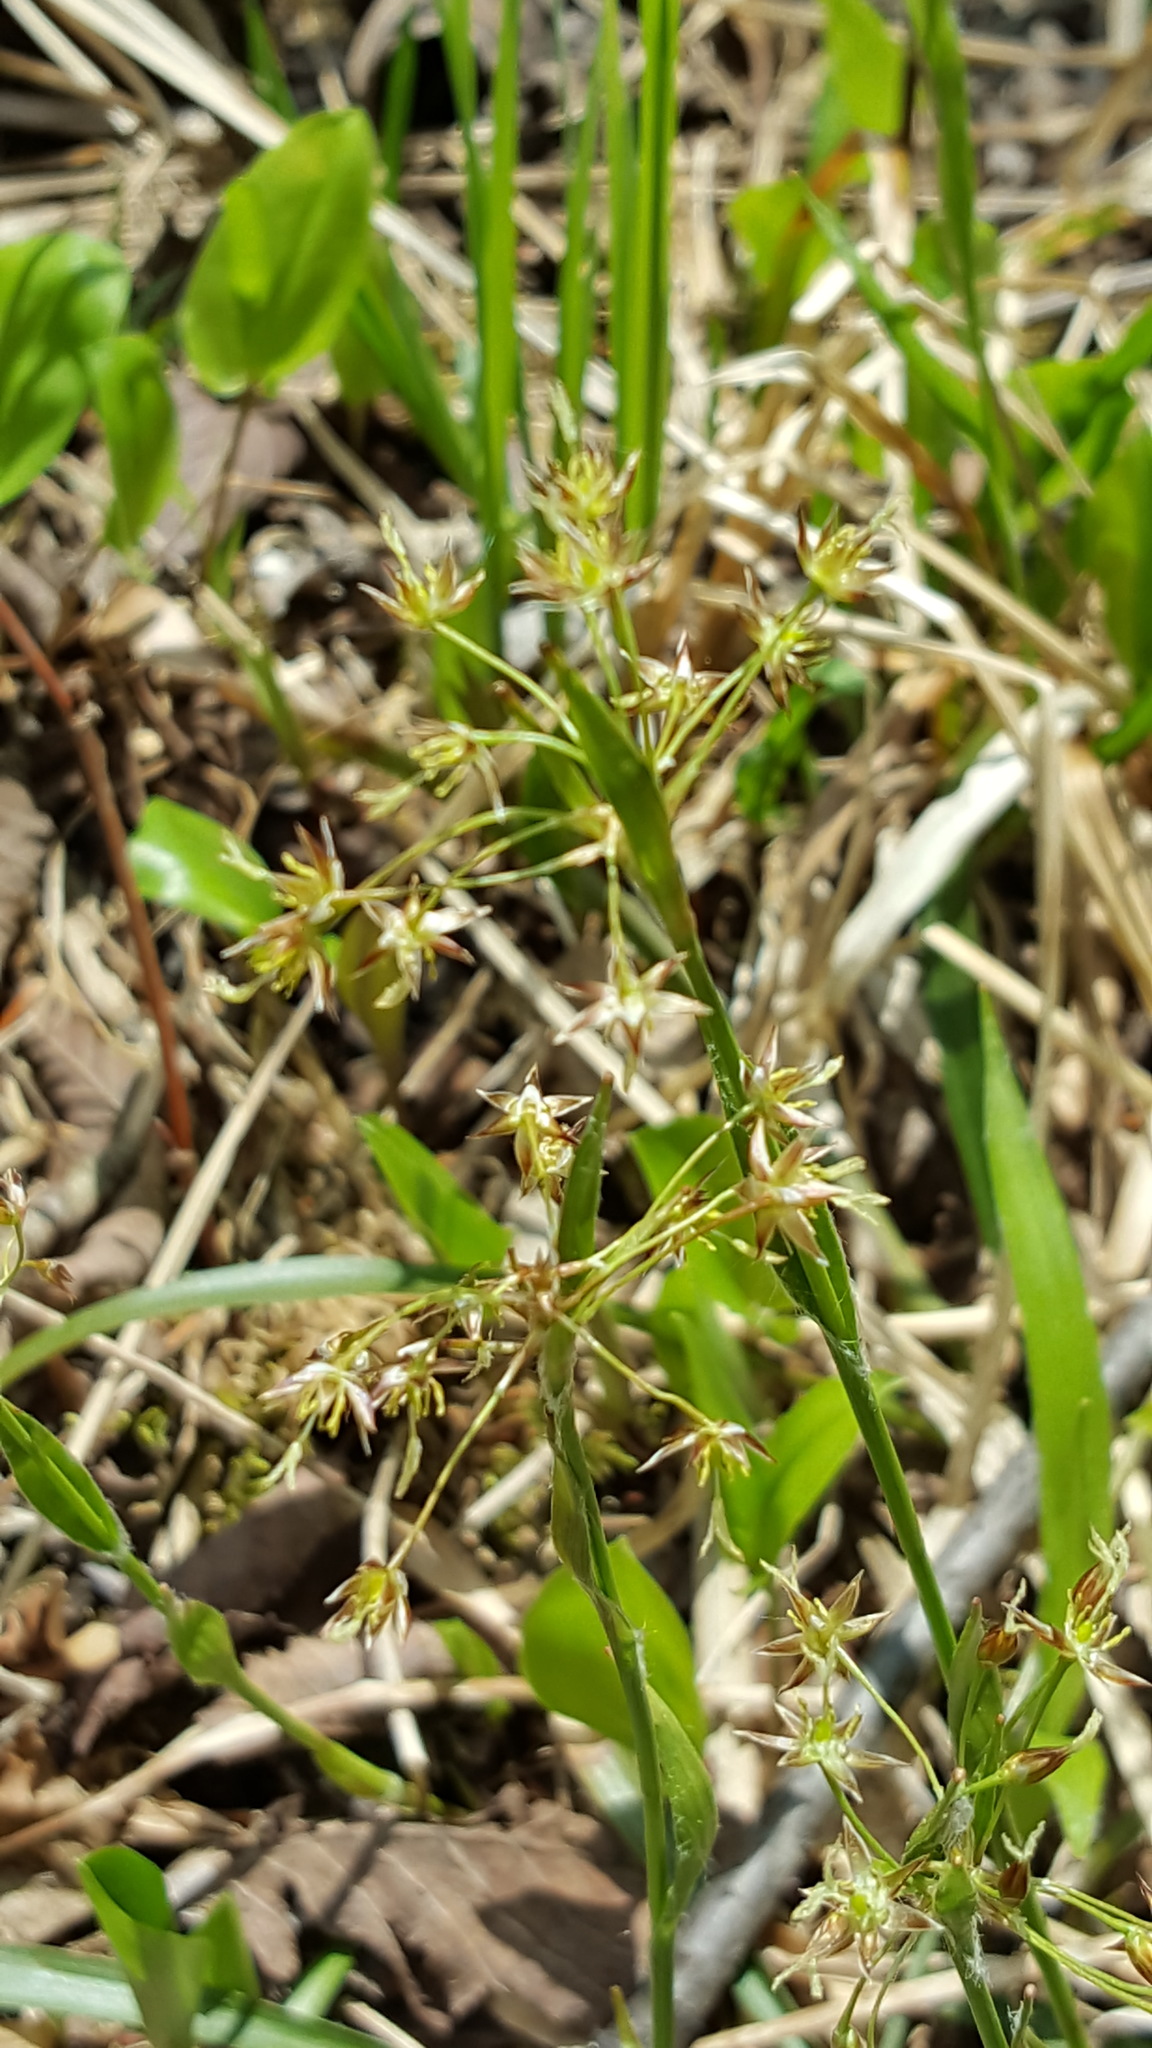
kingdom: Plantae
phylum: Tracheophyta
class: Liliopsida
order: Poales
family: Juncaceae
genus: Luzula
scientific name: Luzula acuminata
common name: Hairy woodrush
